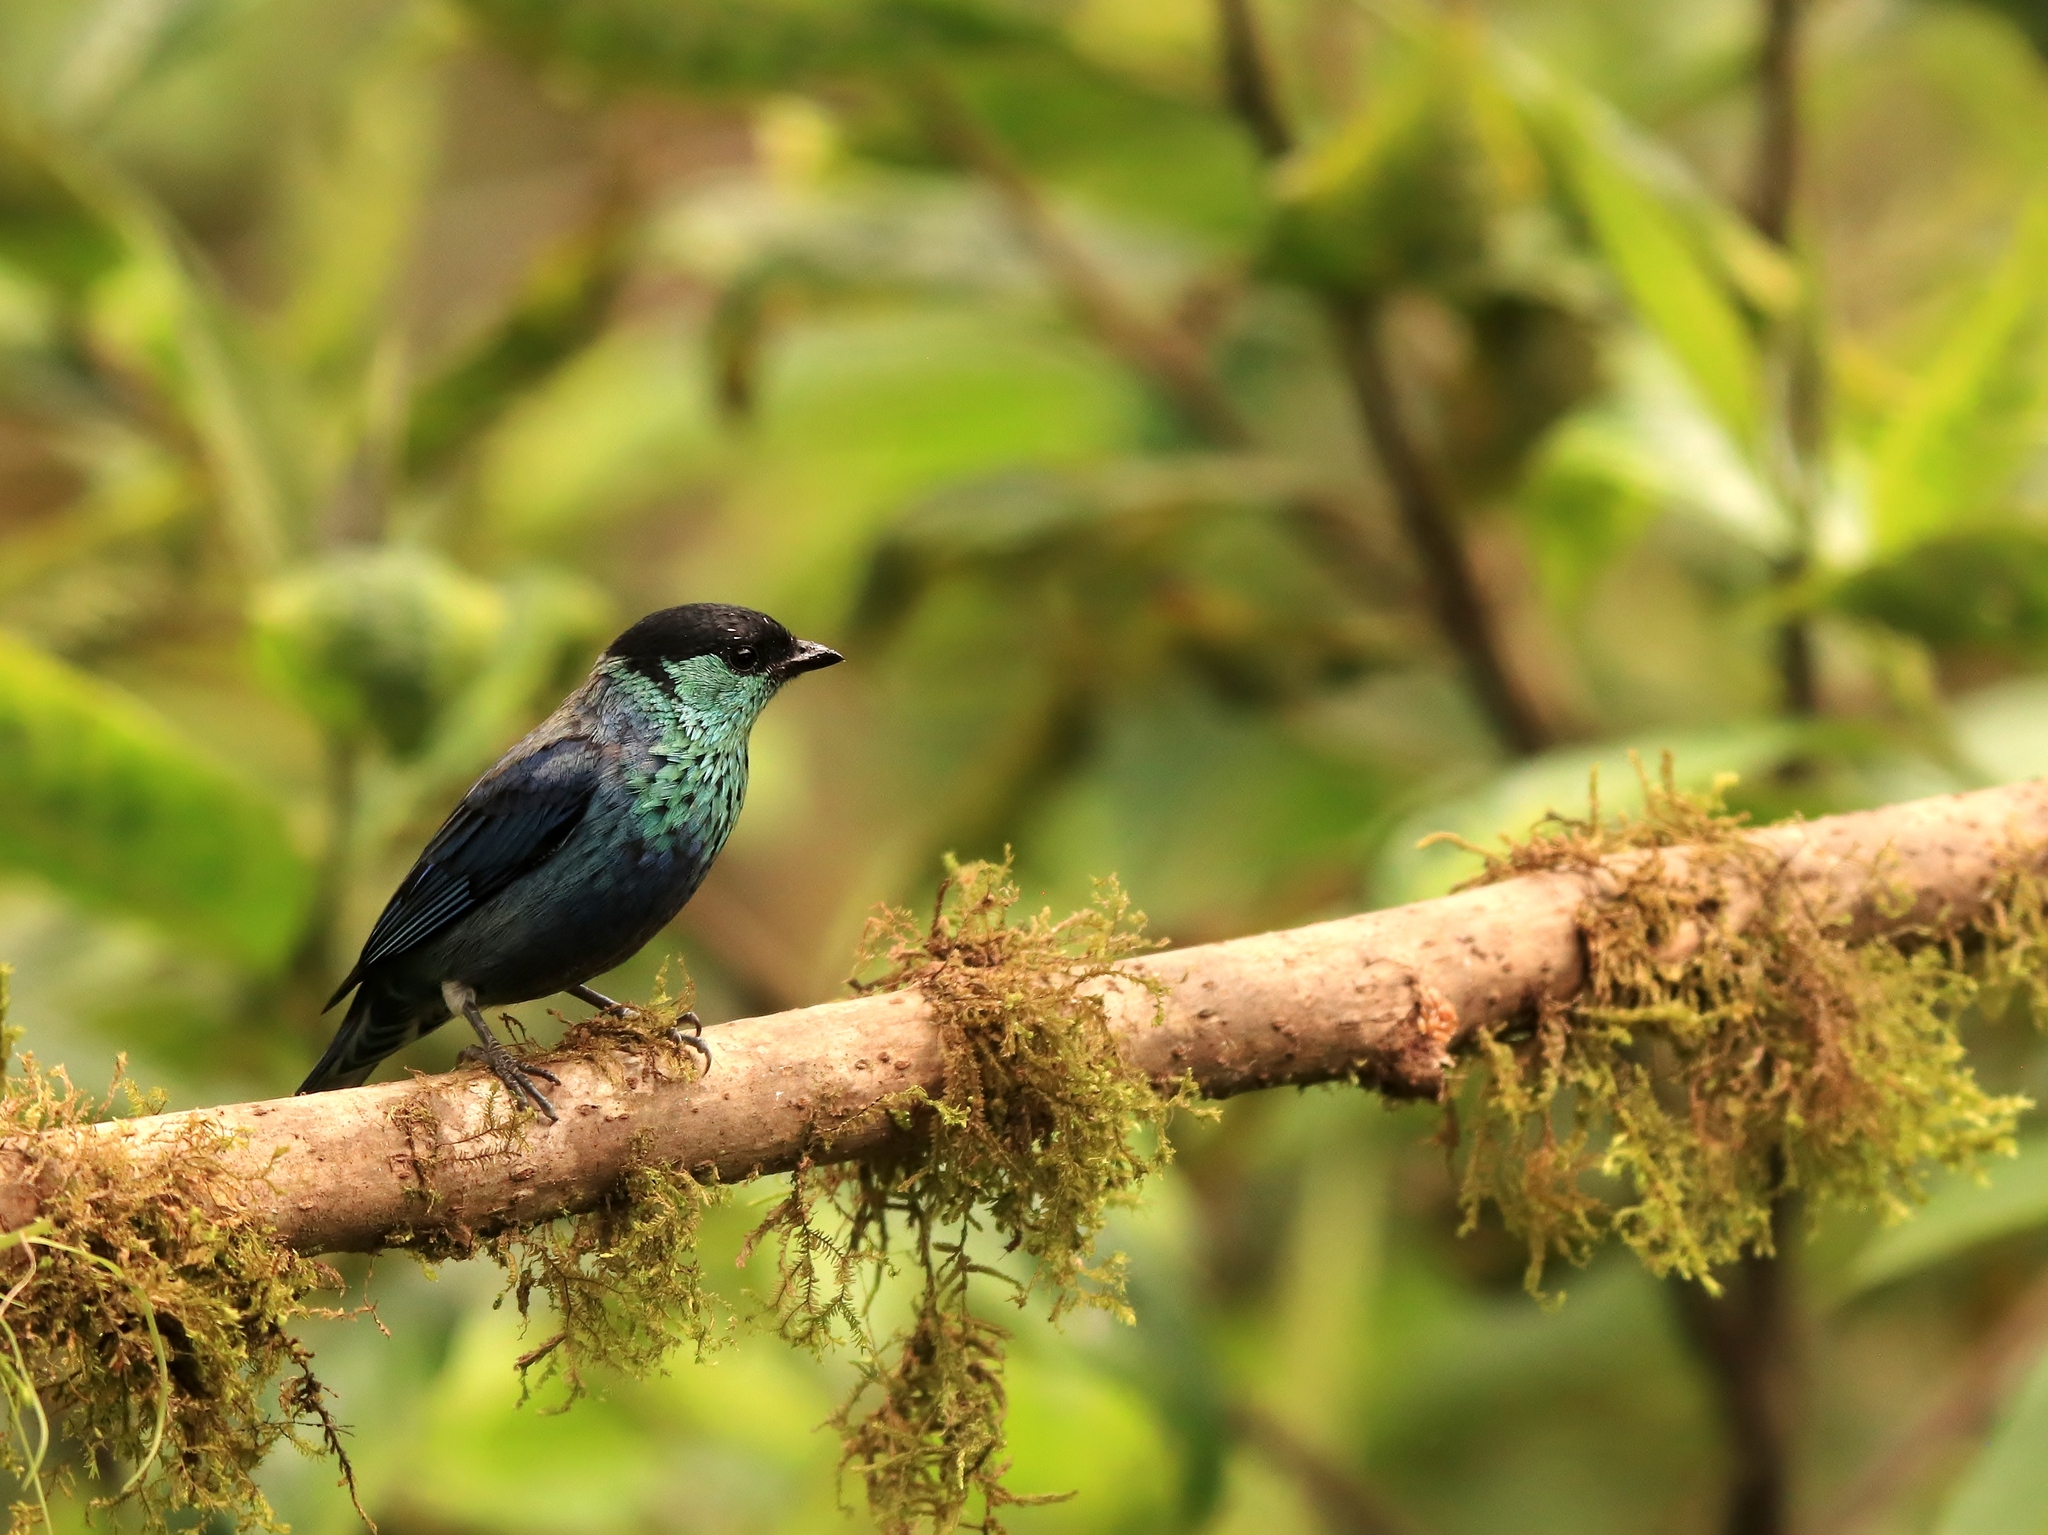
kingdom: Animalia
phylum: Chordata
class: Aves
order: Passeriformes
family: Thraupidae
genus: Stilpnia
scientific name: Stilpnia heinei
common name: Black-capped tanager
